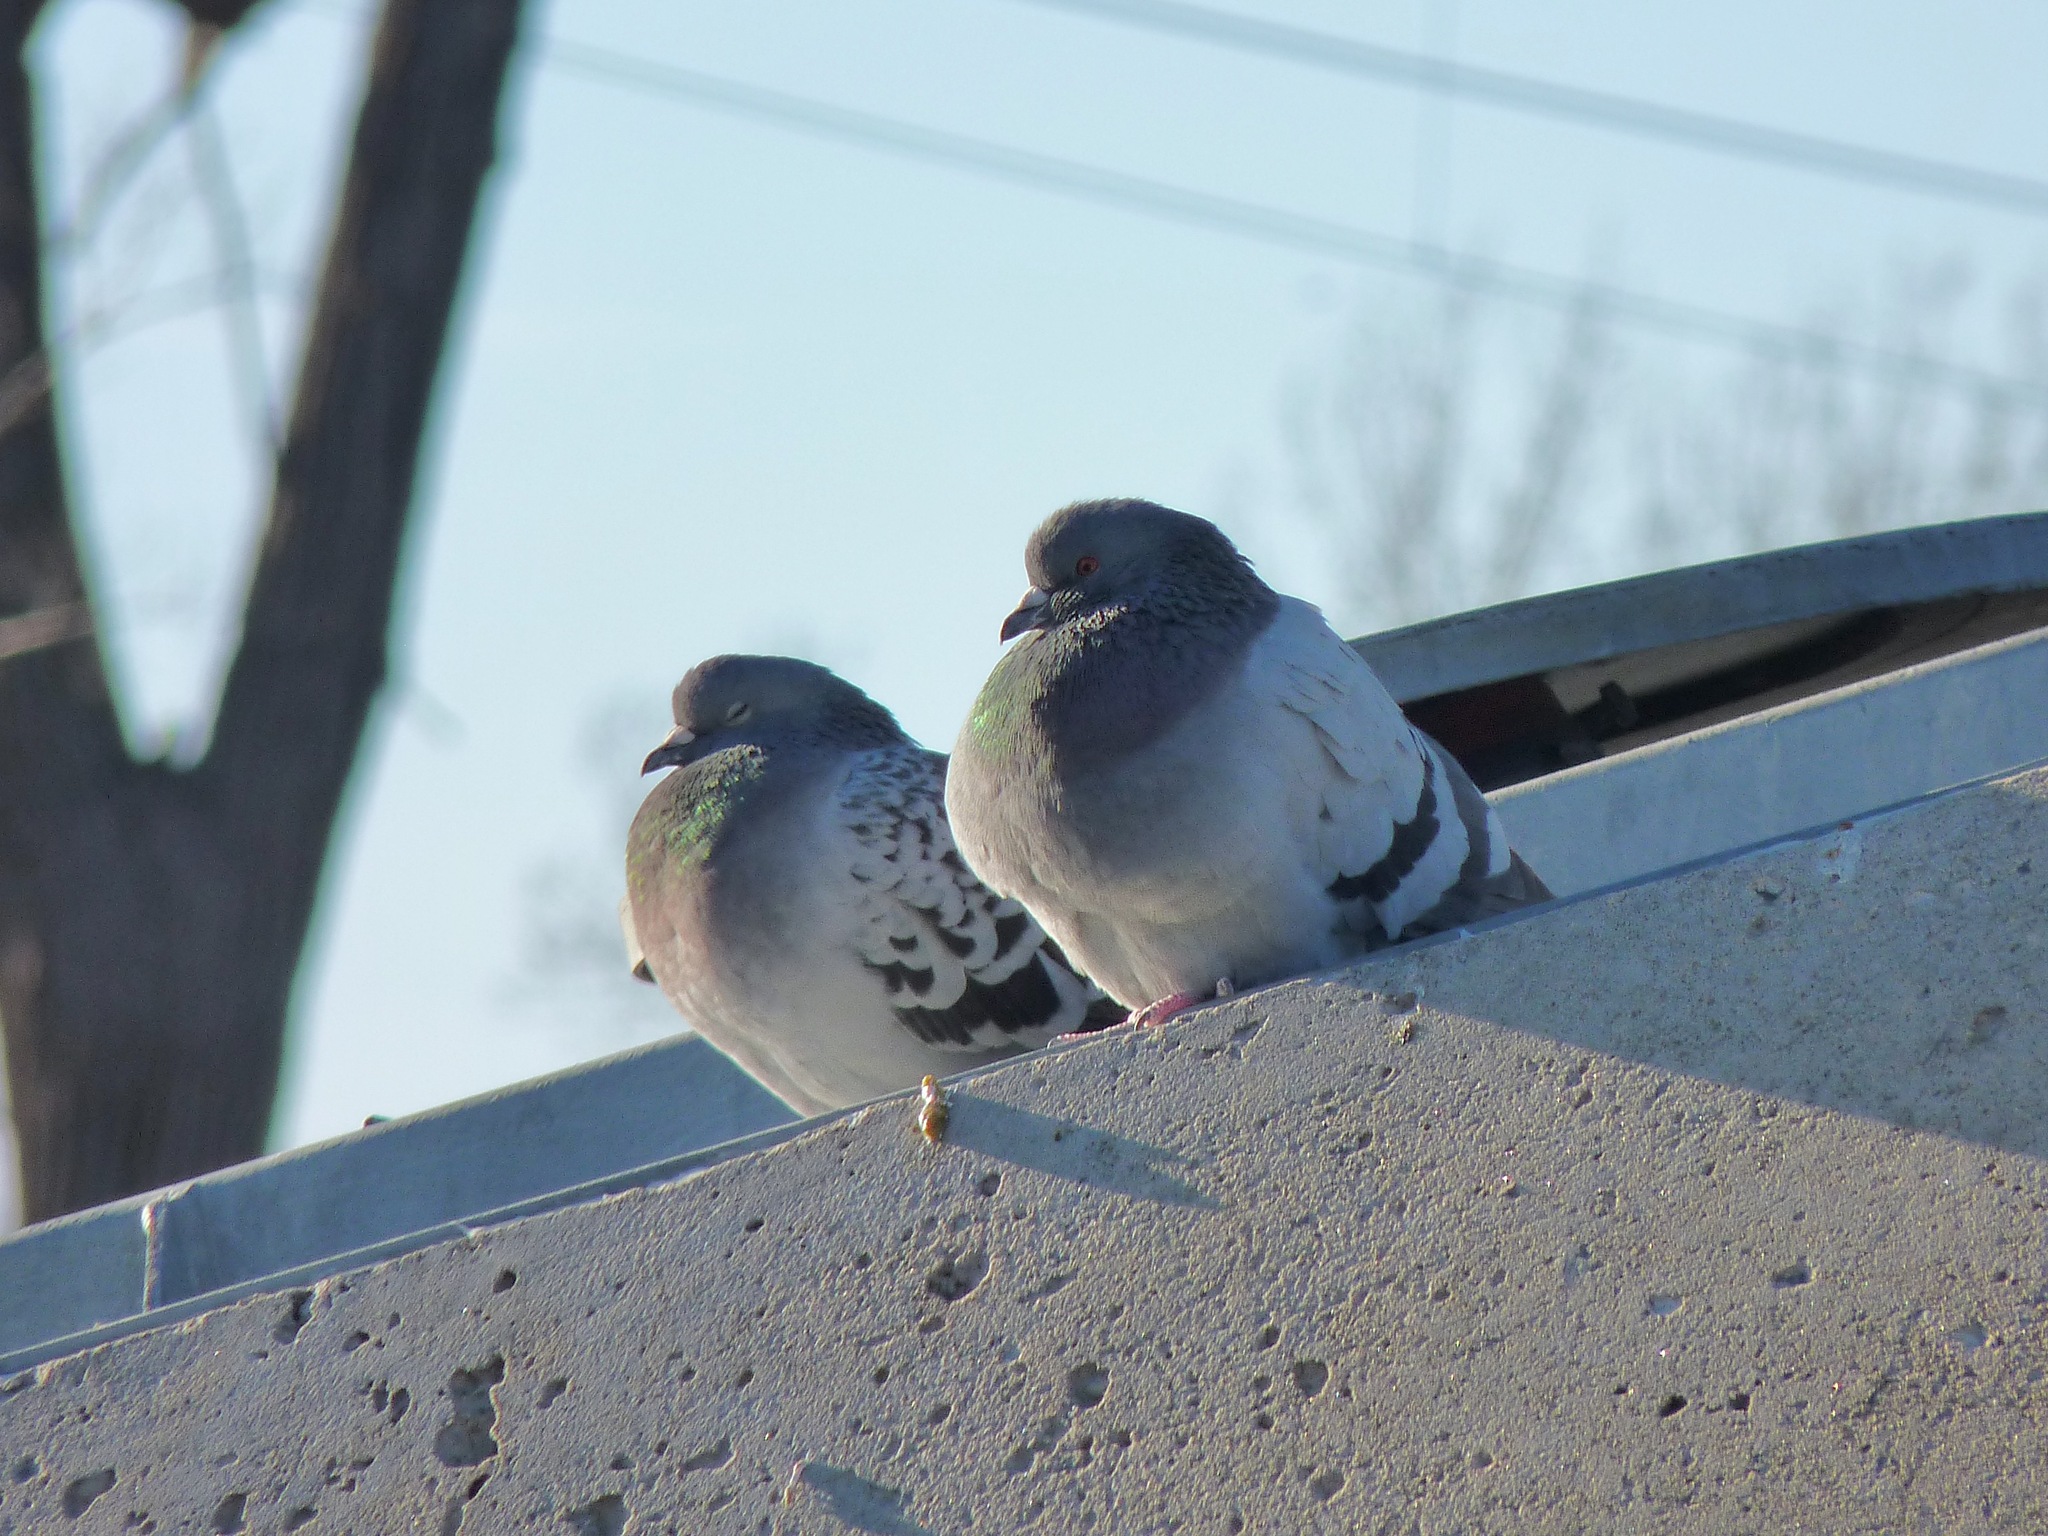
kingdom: Animalia
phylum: Chordata
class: Aves
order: Columbiformes
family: Columbidae
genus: Columba
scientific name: Columba livia
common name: Rock pigeon
